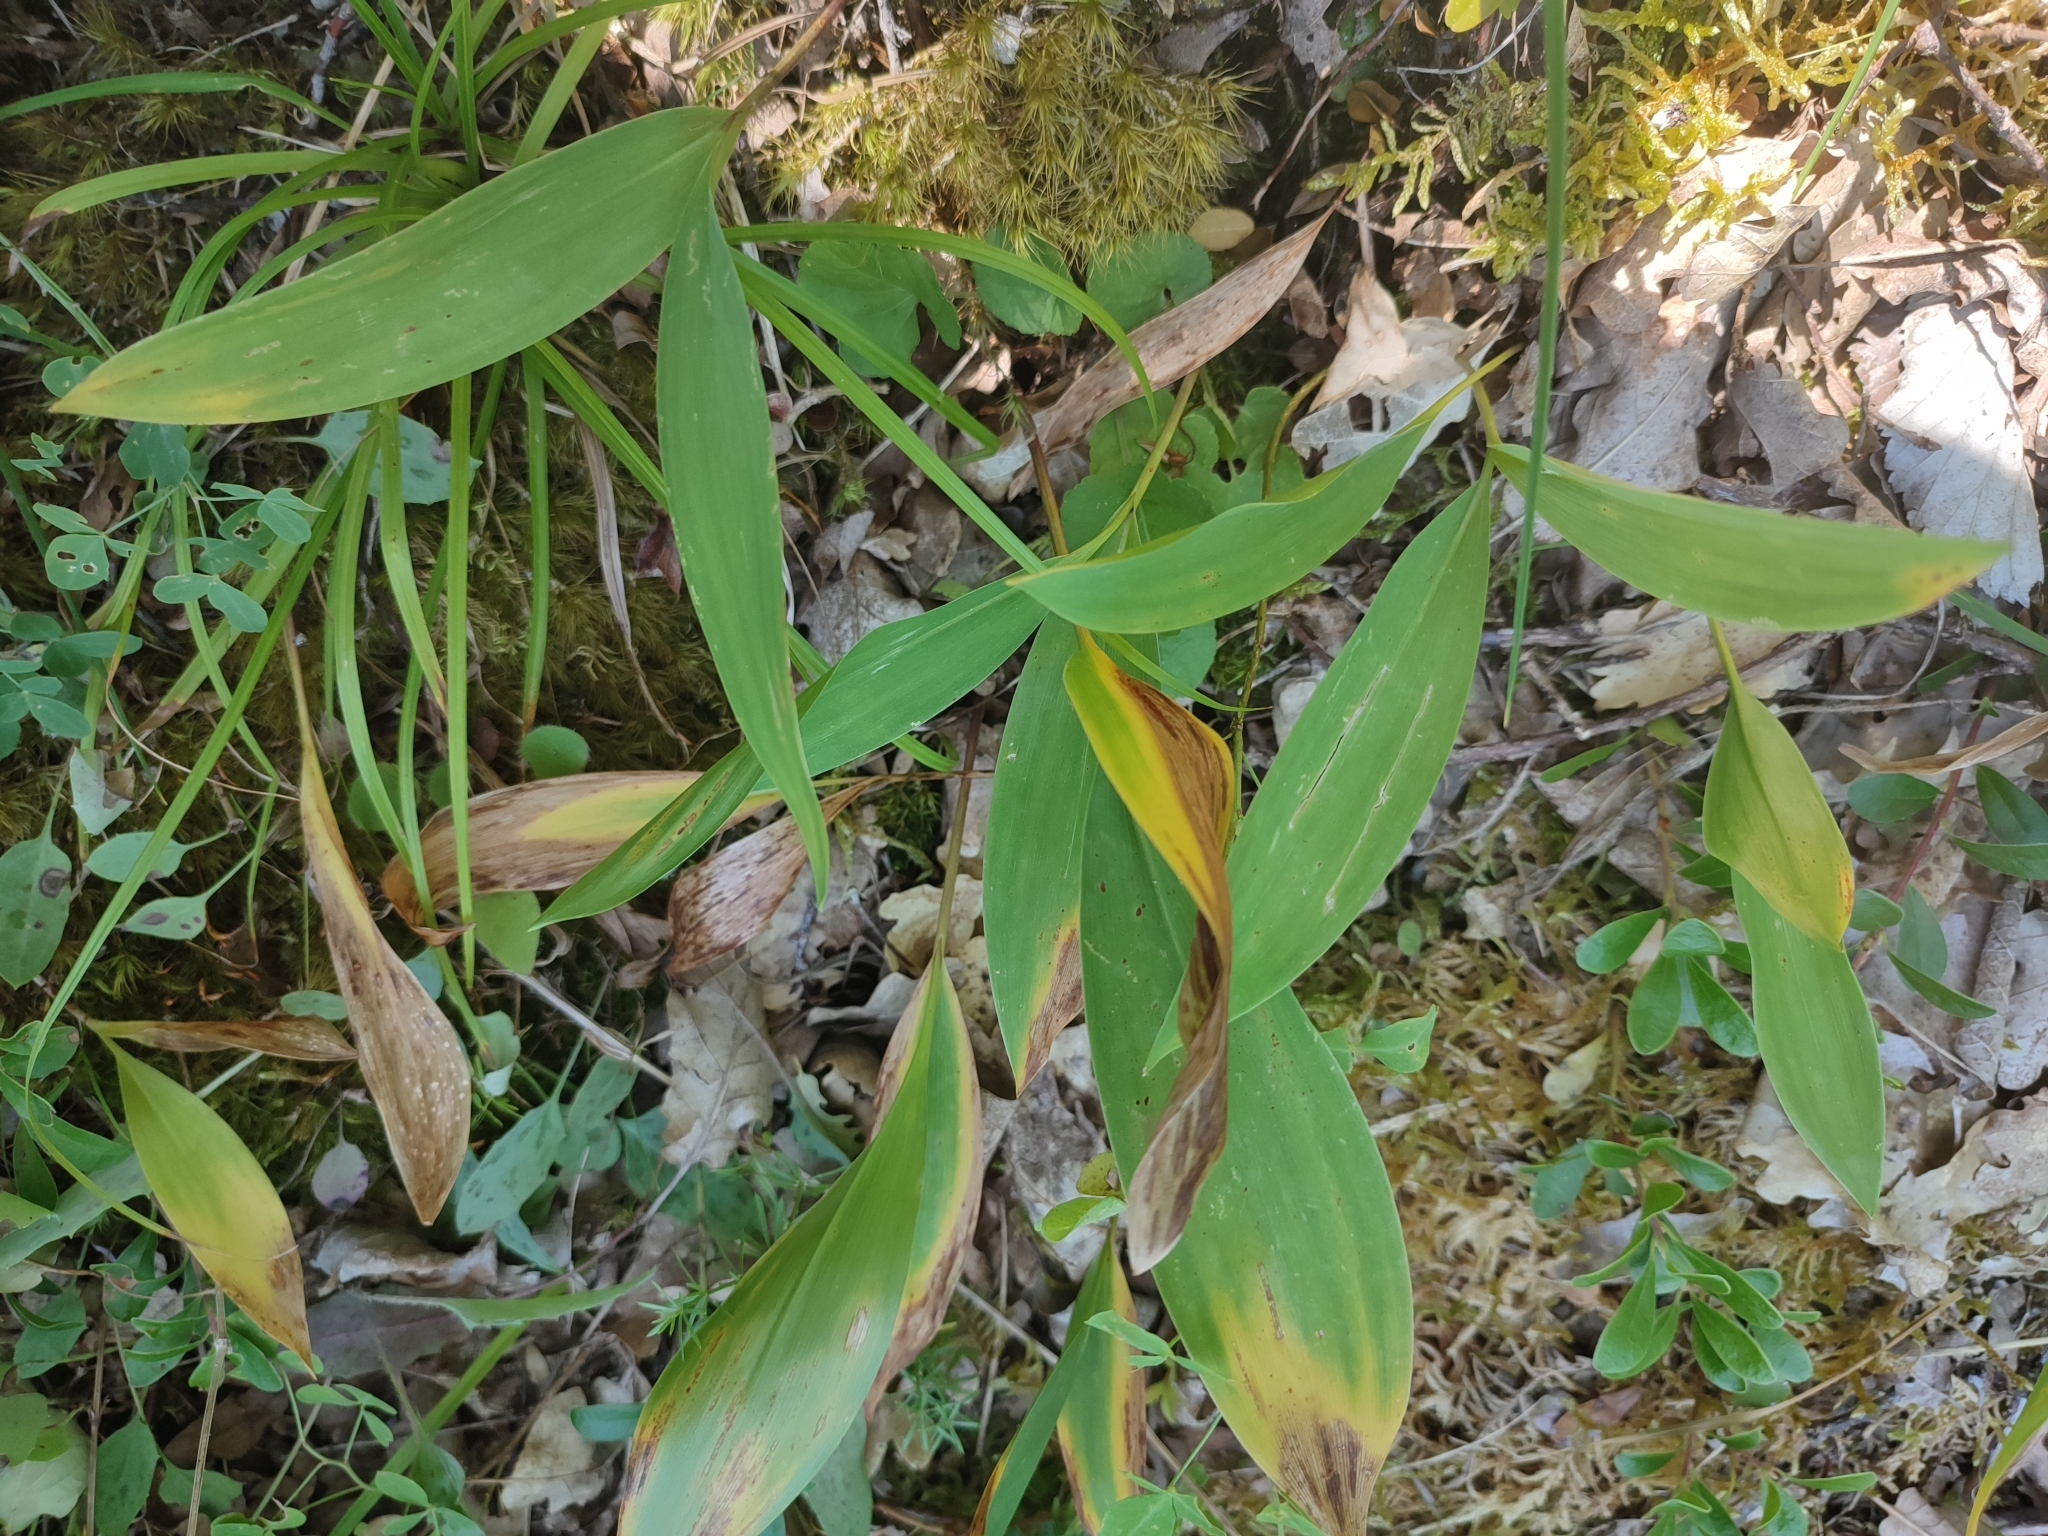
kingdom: Plantae
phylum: Tracheophyta
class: Liliopsida
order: Asparagales
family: Asparagaceae
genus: Convallaria
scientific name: Convallaria majalis
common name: Lily-of-the-valley
